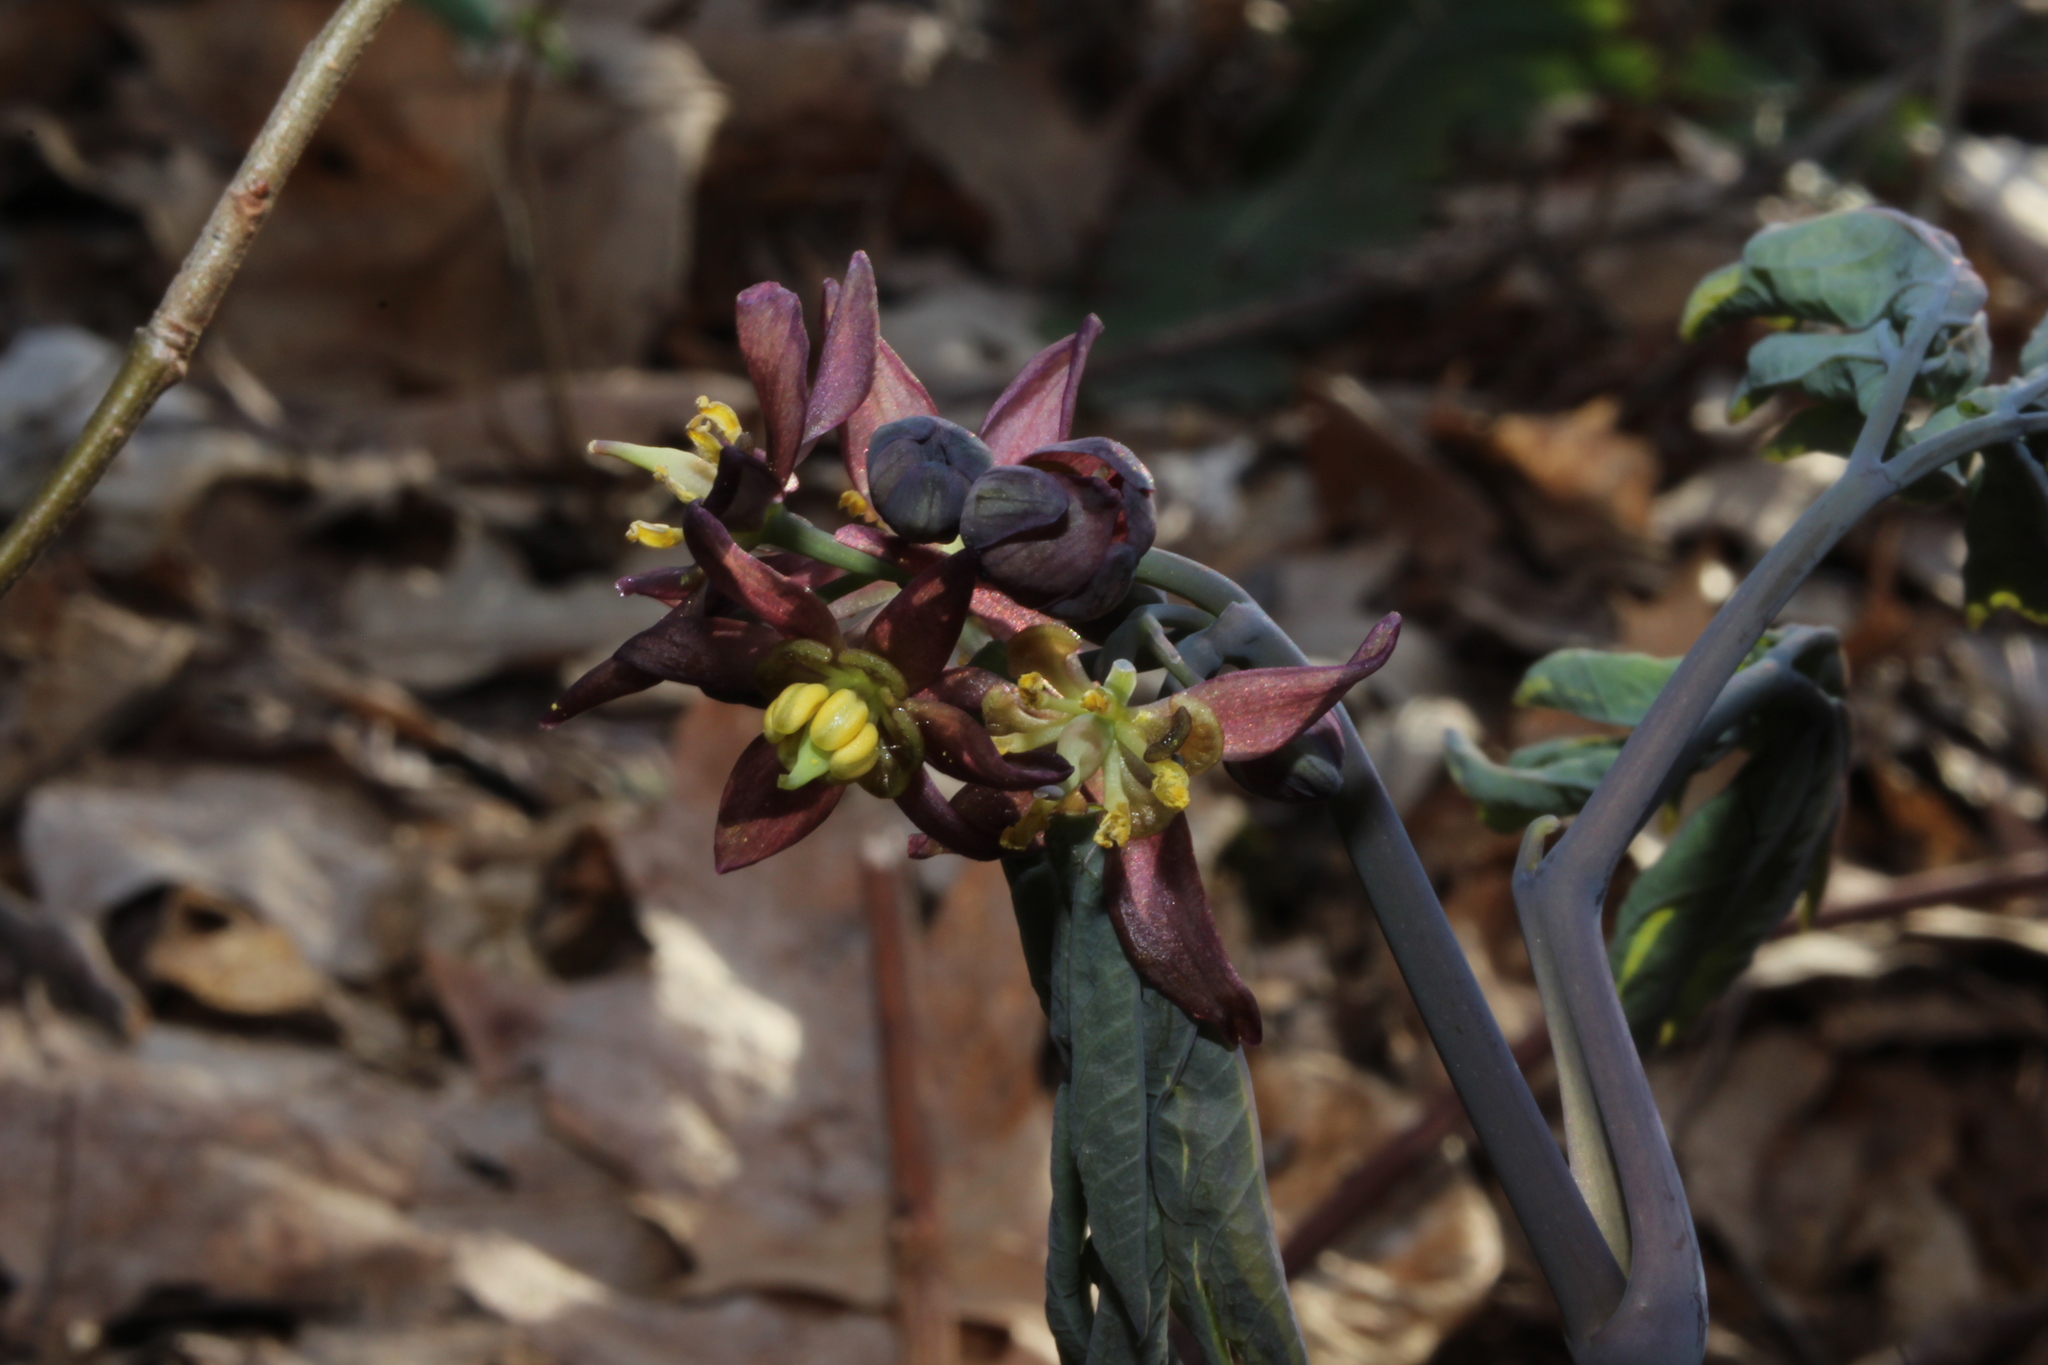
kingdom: Plantae
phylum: Tracheophyta
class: Magnoliopsida
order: Ranunculales
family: Berberidaceae
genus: Caulophyllum
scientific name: Caulophyllum giganteum
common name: Blue cohosh
